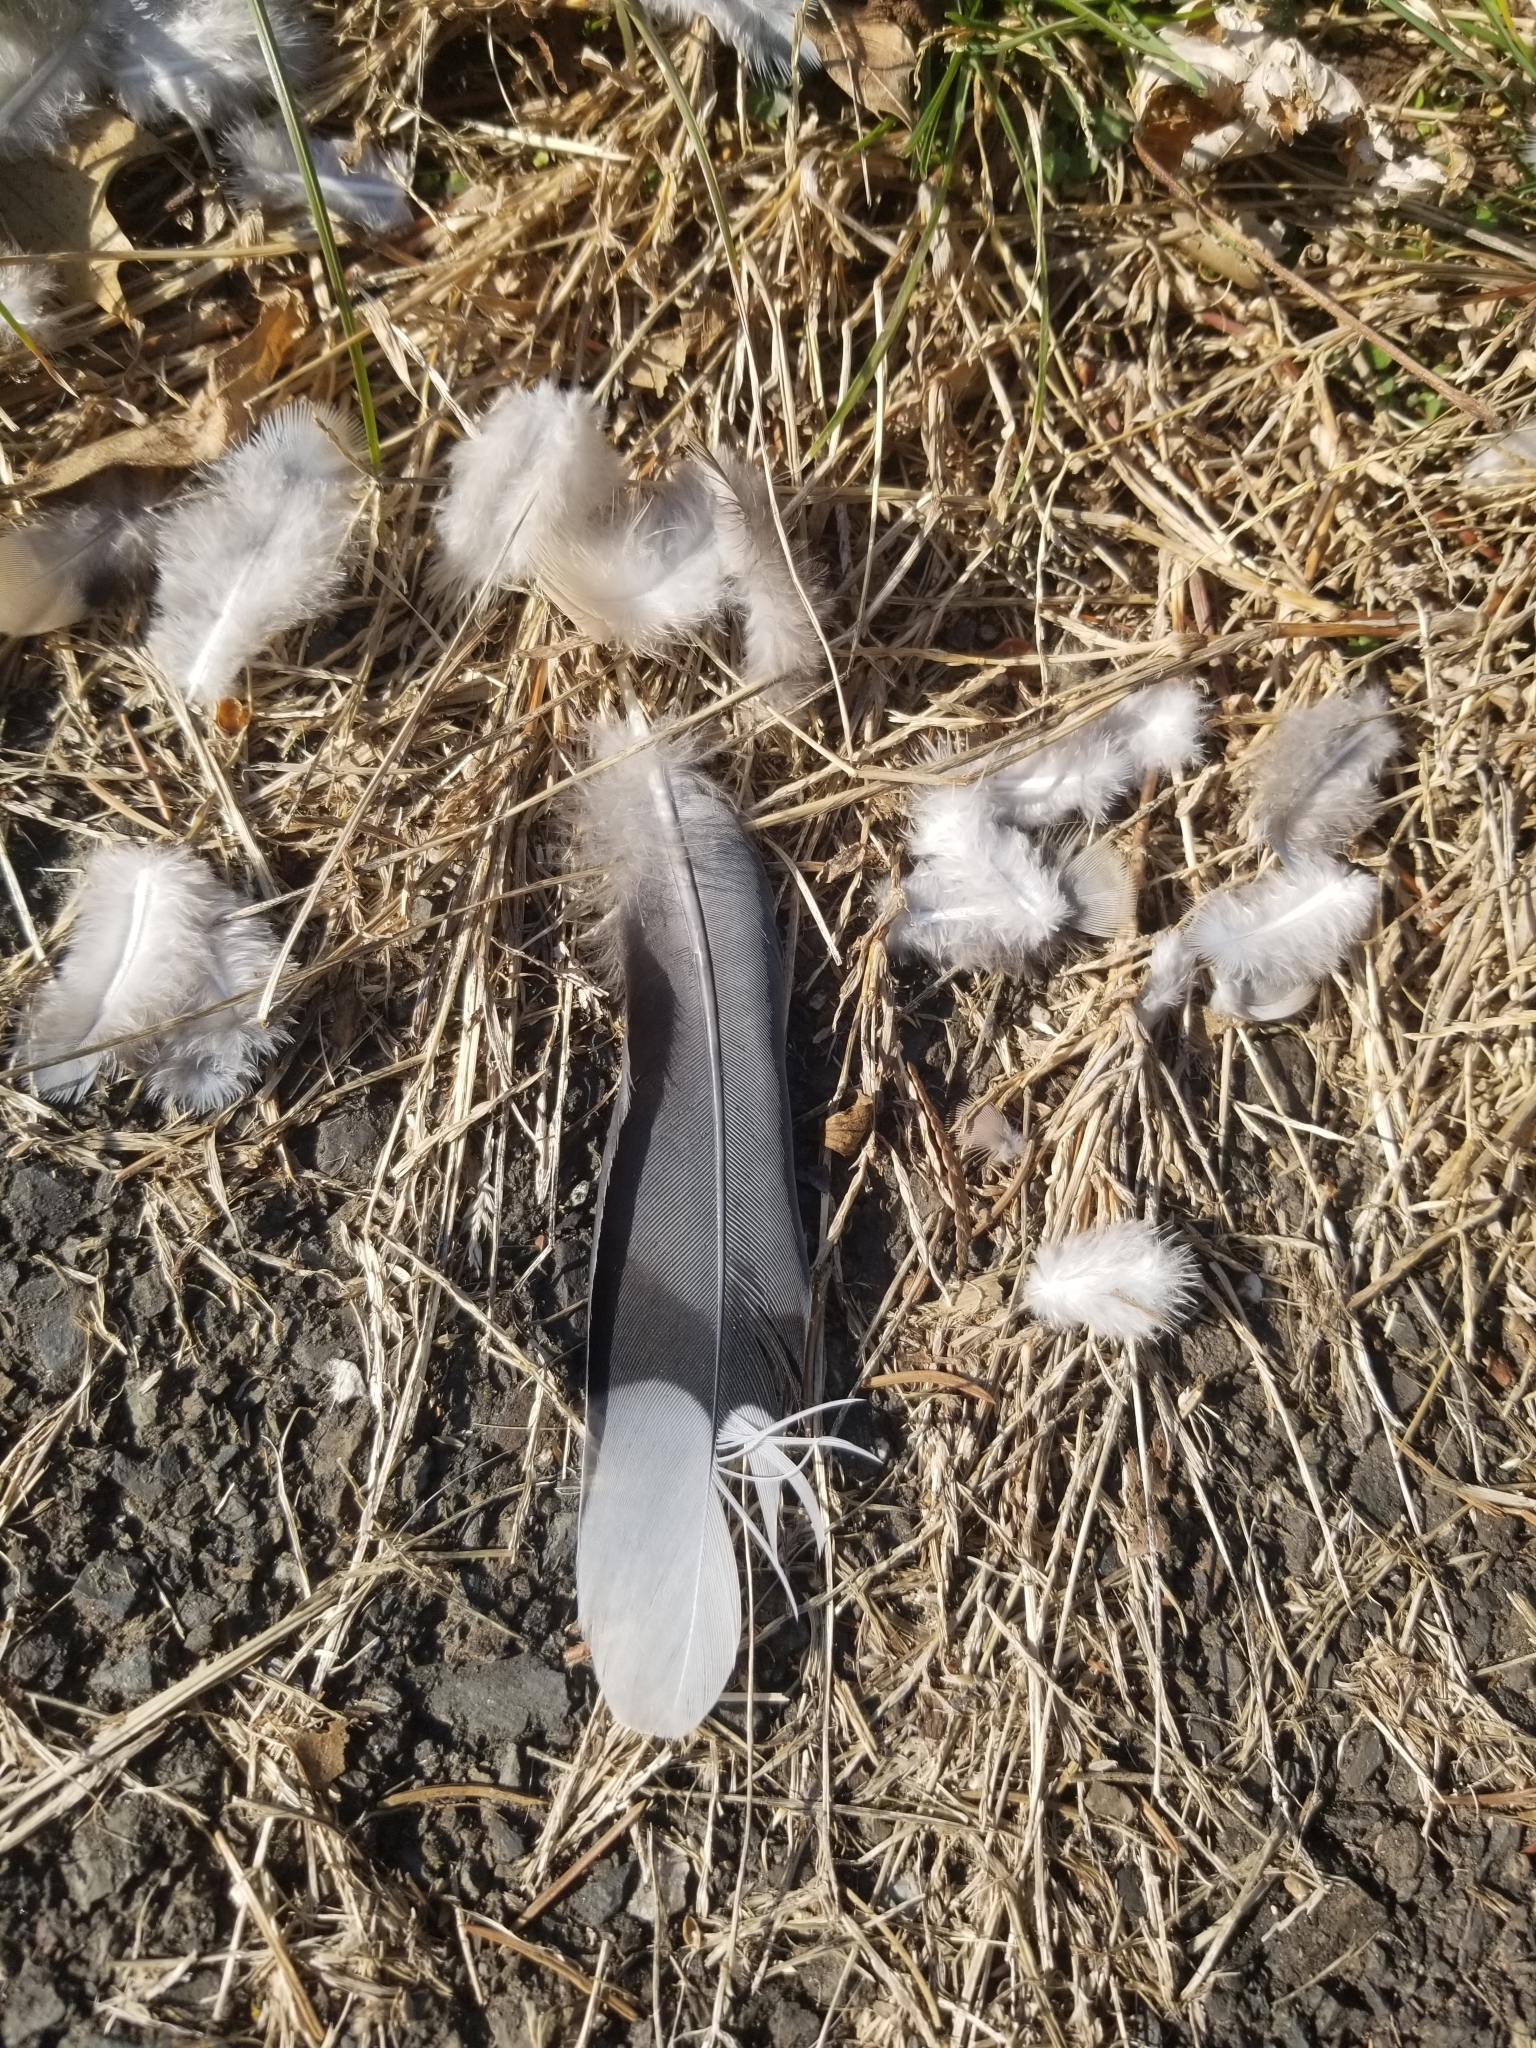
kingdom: Animalia
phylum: Chordata
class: Aves
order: Columbiformes
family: Columbidae
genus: Zenaida
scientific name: Zenaida macroura
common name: Mourning dove
